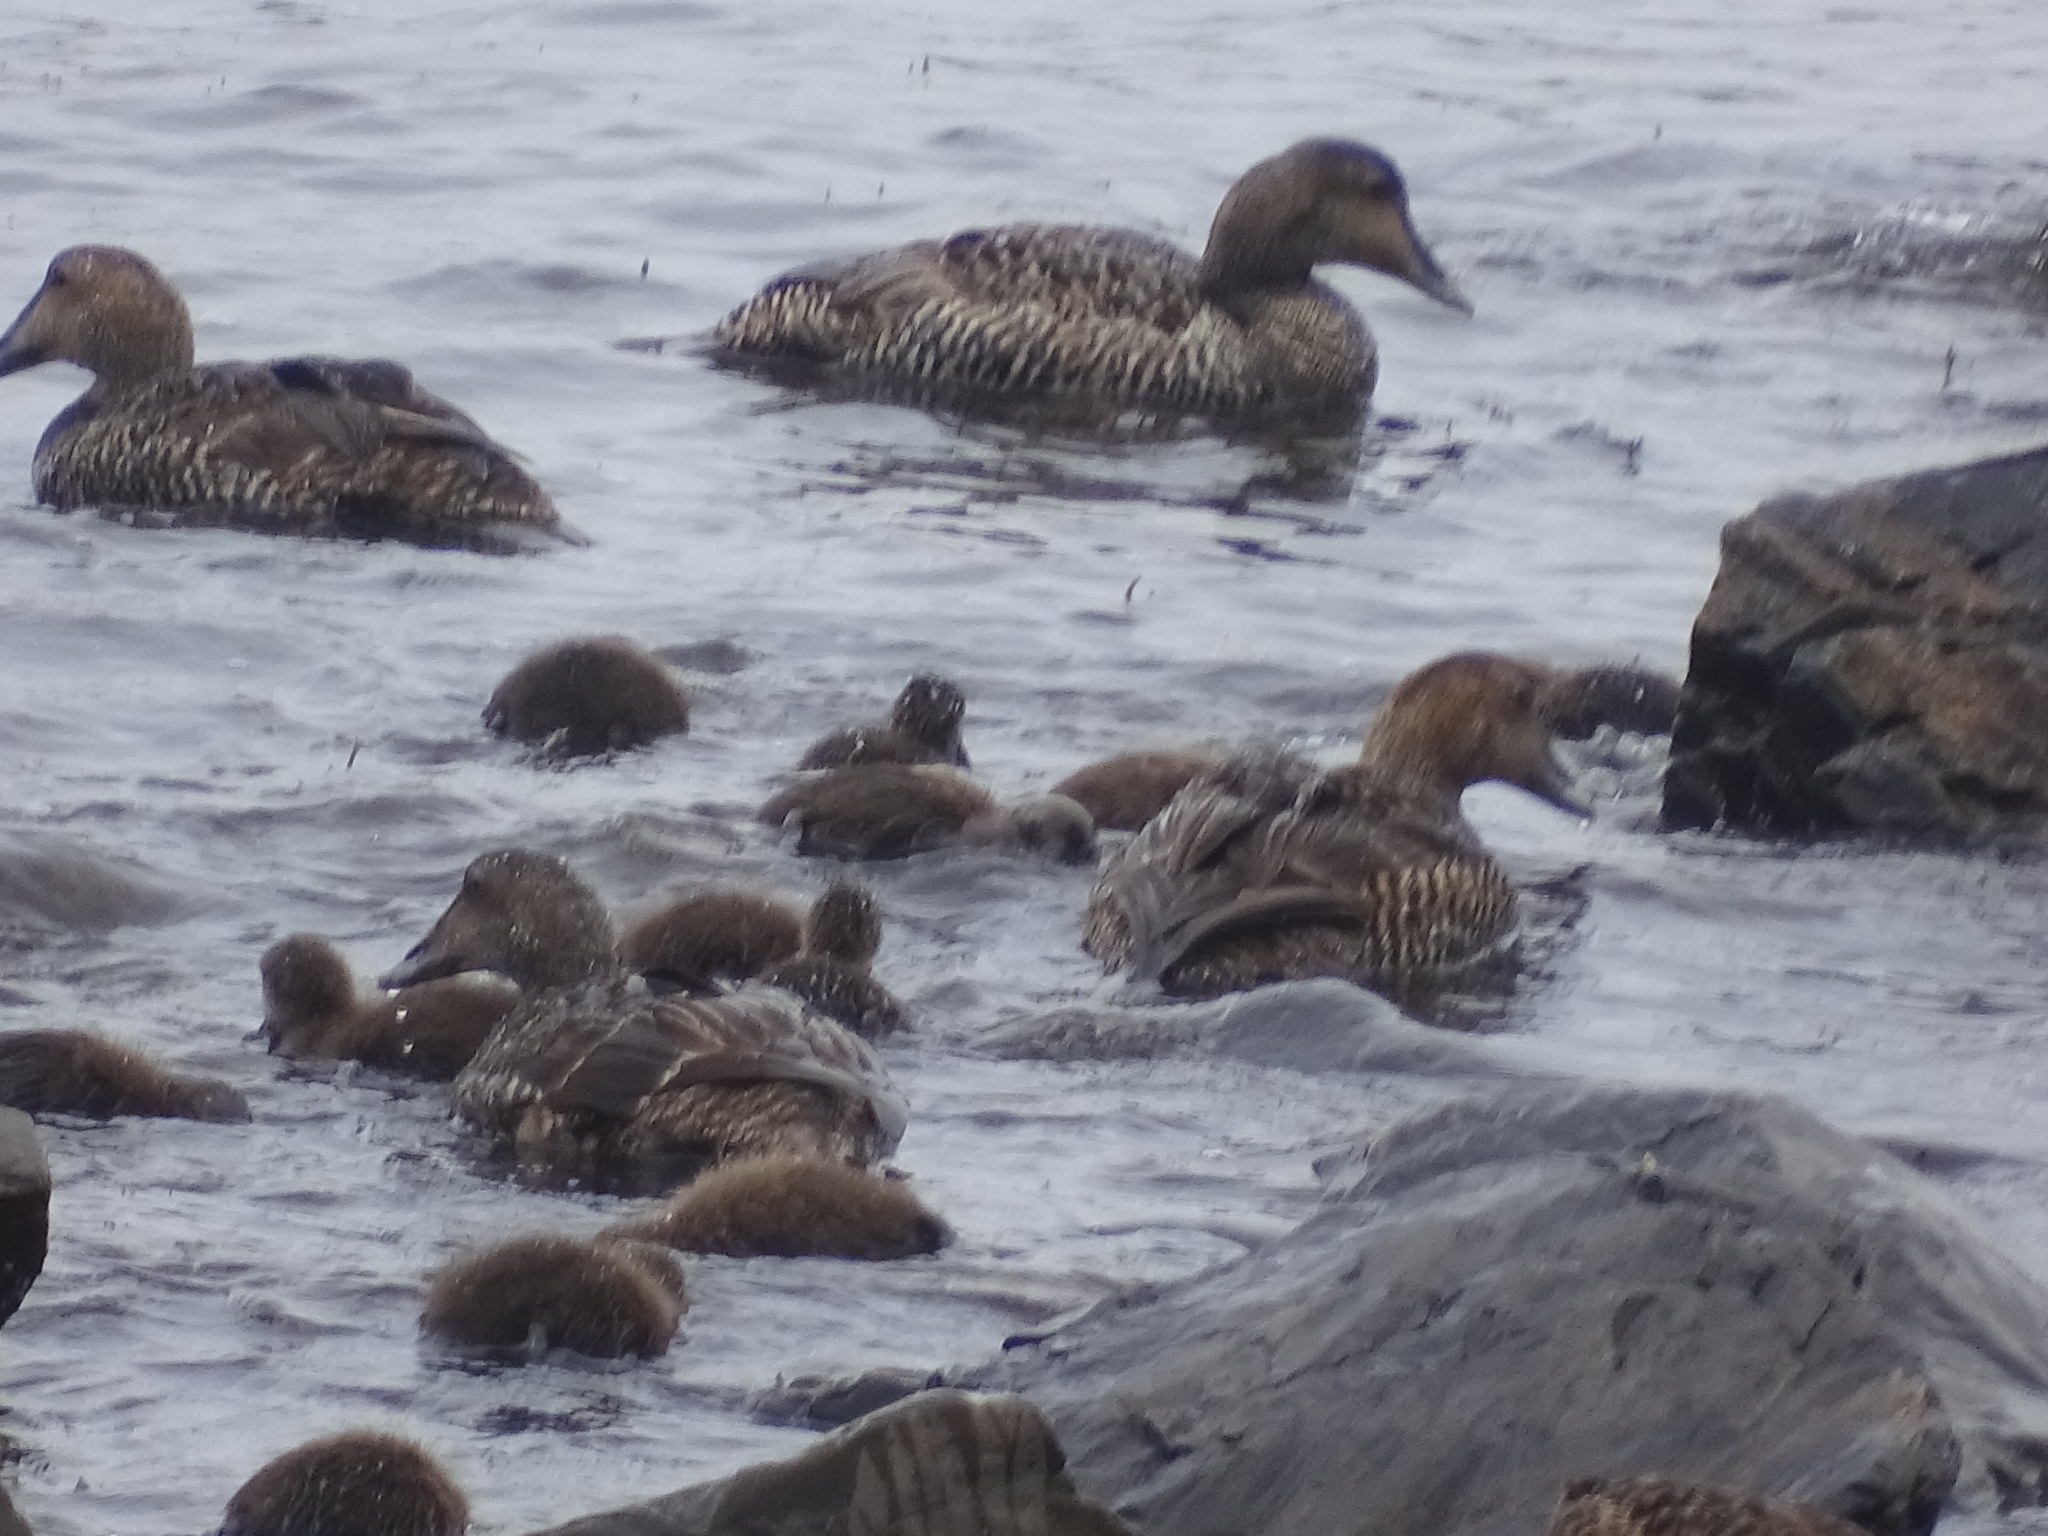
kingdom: Animalia
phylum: Chordata
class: Aves
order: Anseriformes
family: Anatidae
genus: Somateria
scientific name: Somateria mollissima
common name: Common eider
